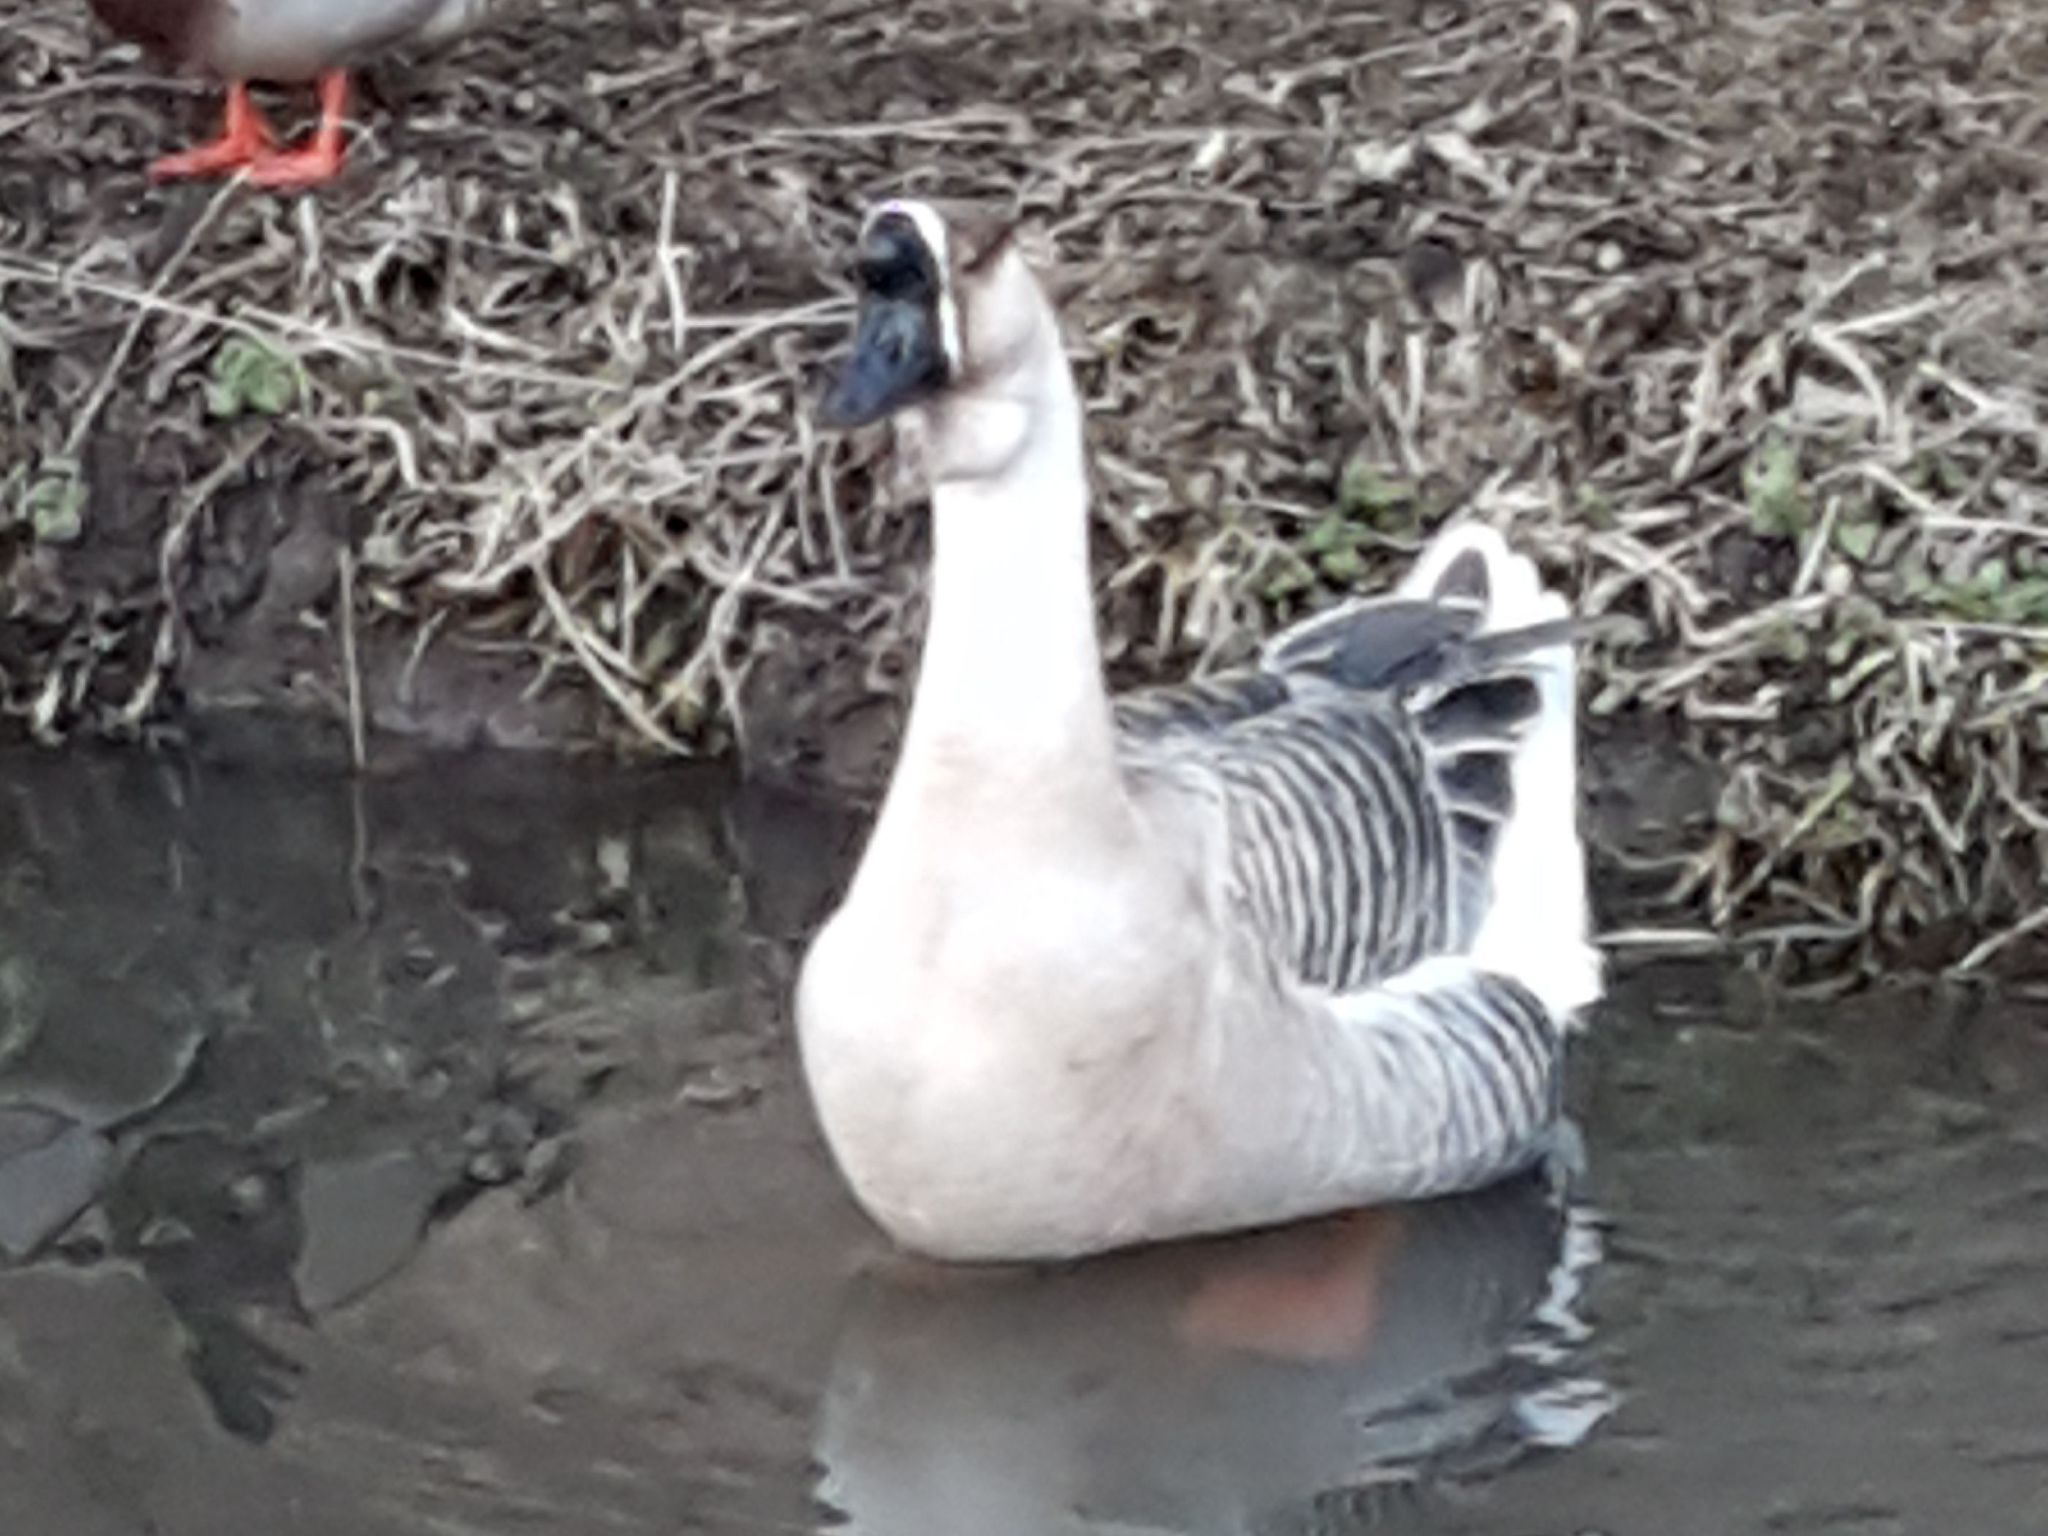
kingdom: Animalia
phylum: Chordata
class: Aves
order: Anseriformes
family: Anatidae
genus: Anser
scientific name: Anser cygnoides
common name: Swan goose
